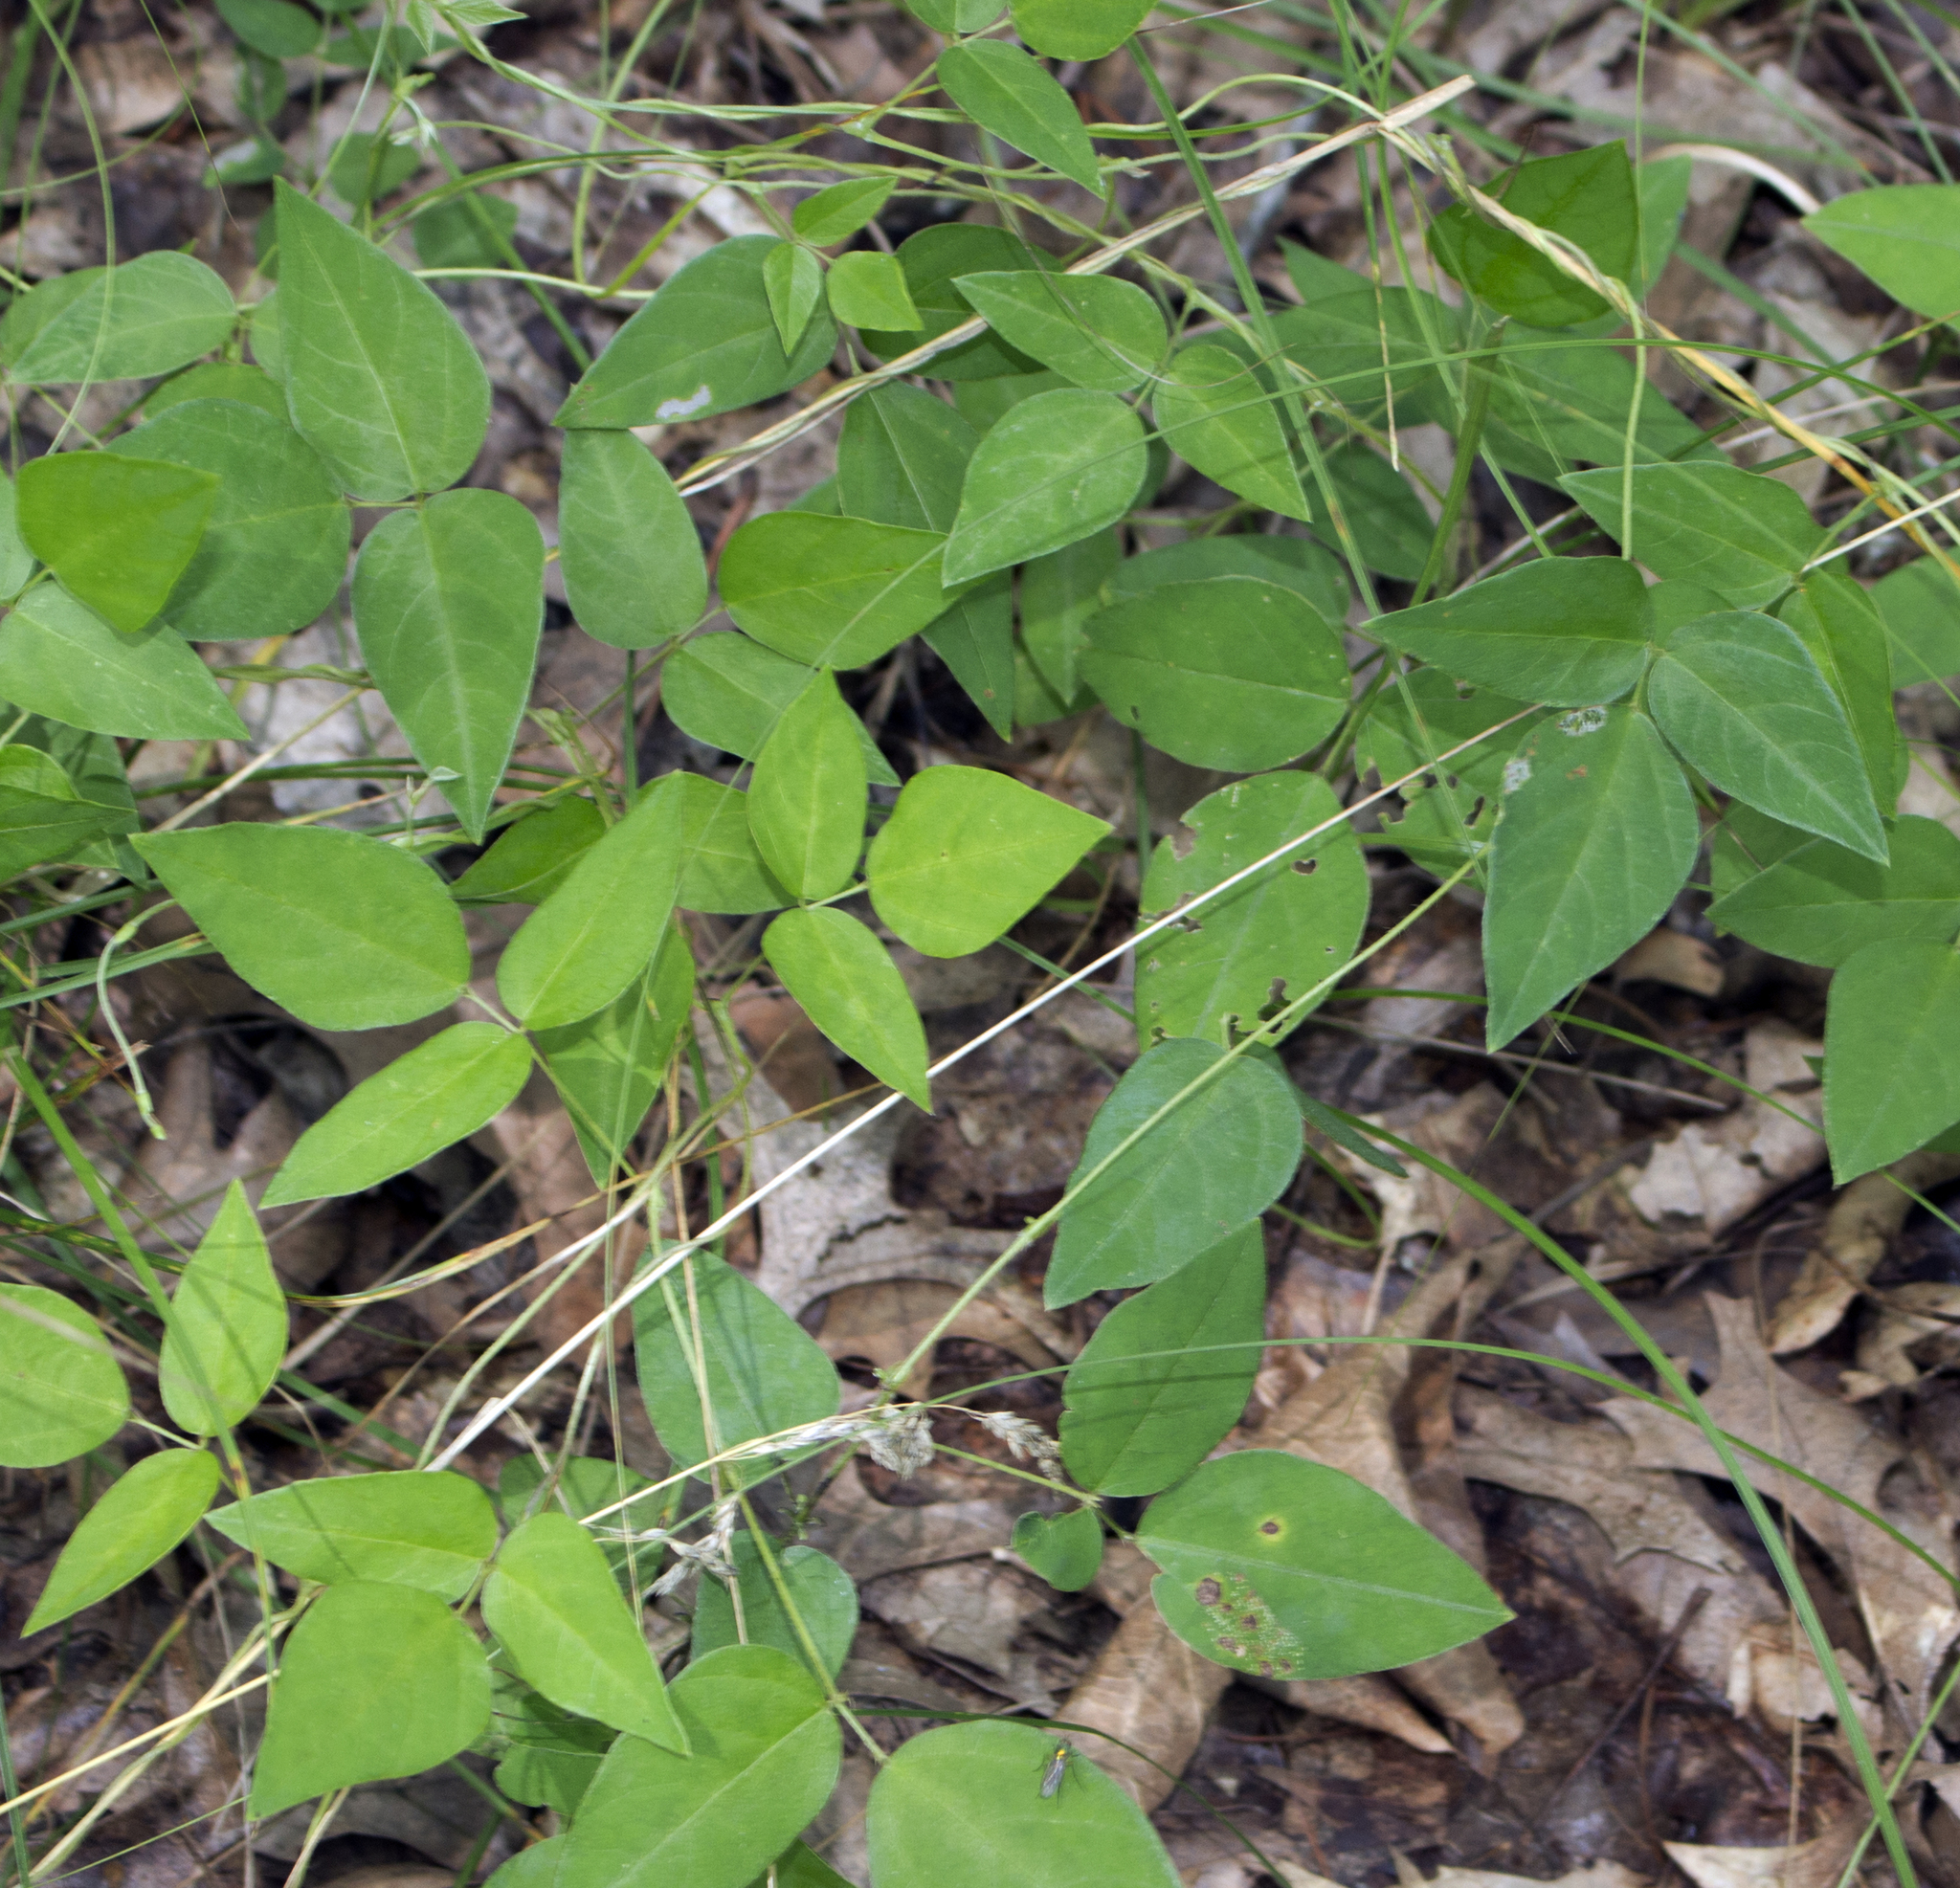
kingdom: Plantae
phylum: Tracheophyta
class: Magnoliopsida
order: Fabales
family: Fabaceae
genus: Amphicarpaea
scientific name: Amphicarpaea bracteata
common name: American hog peanut
